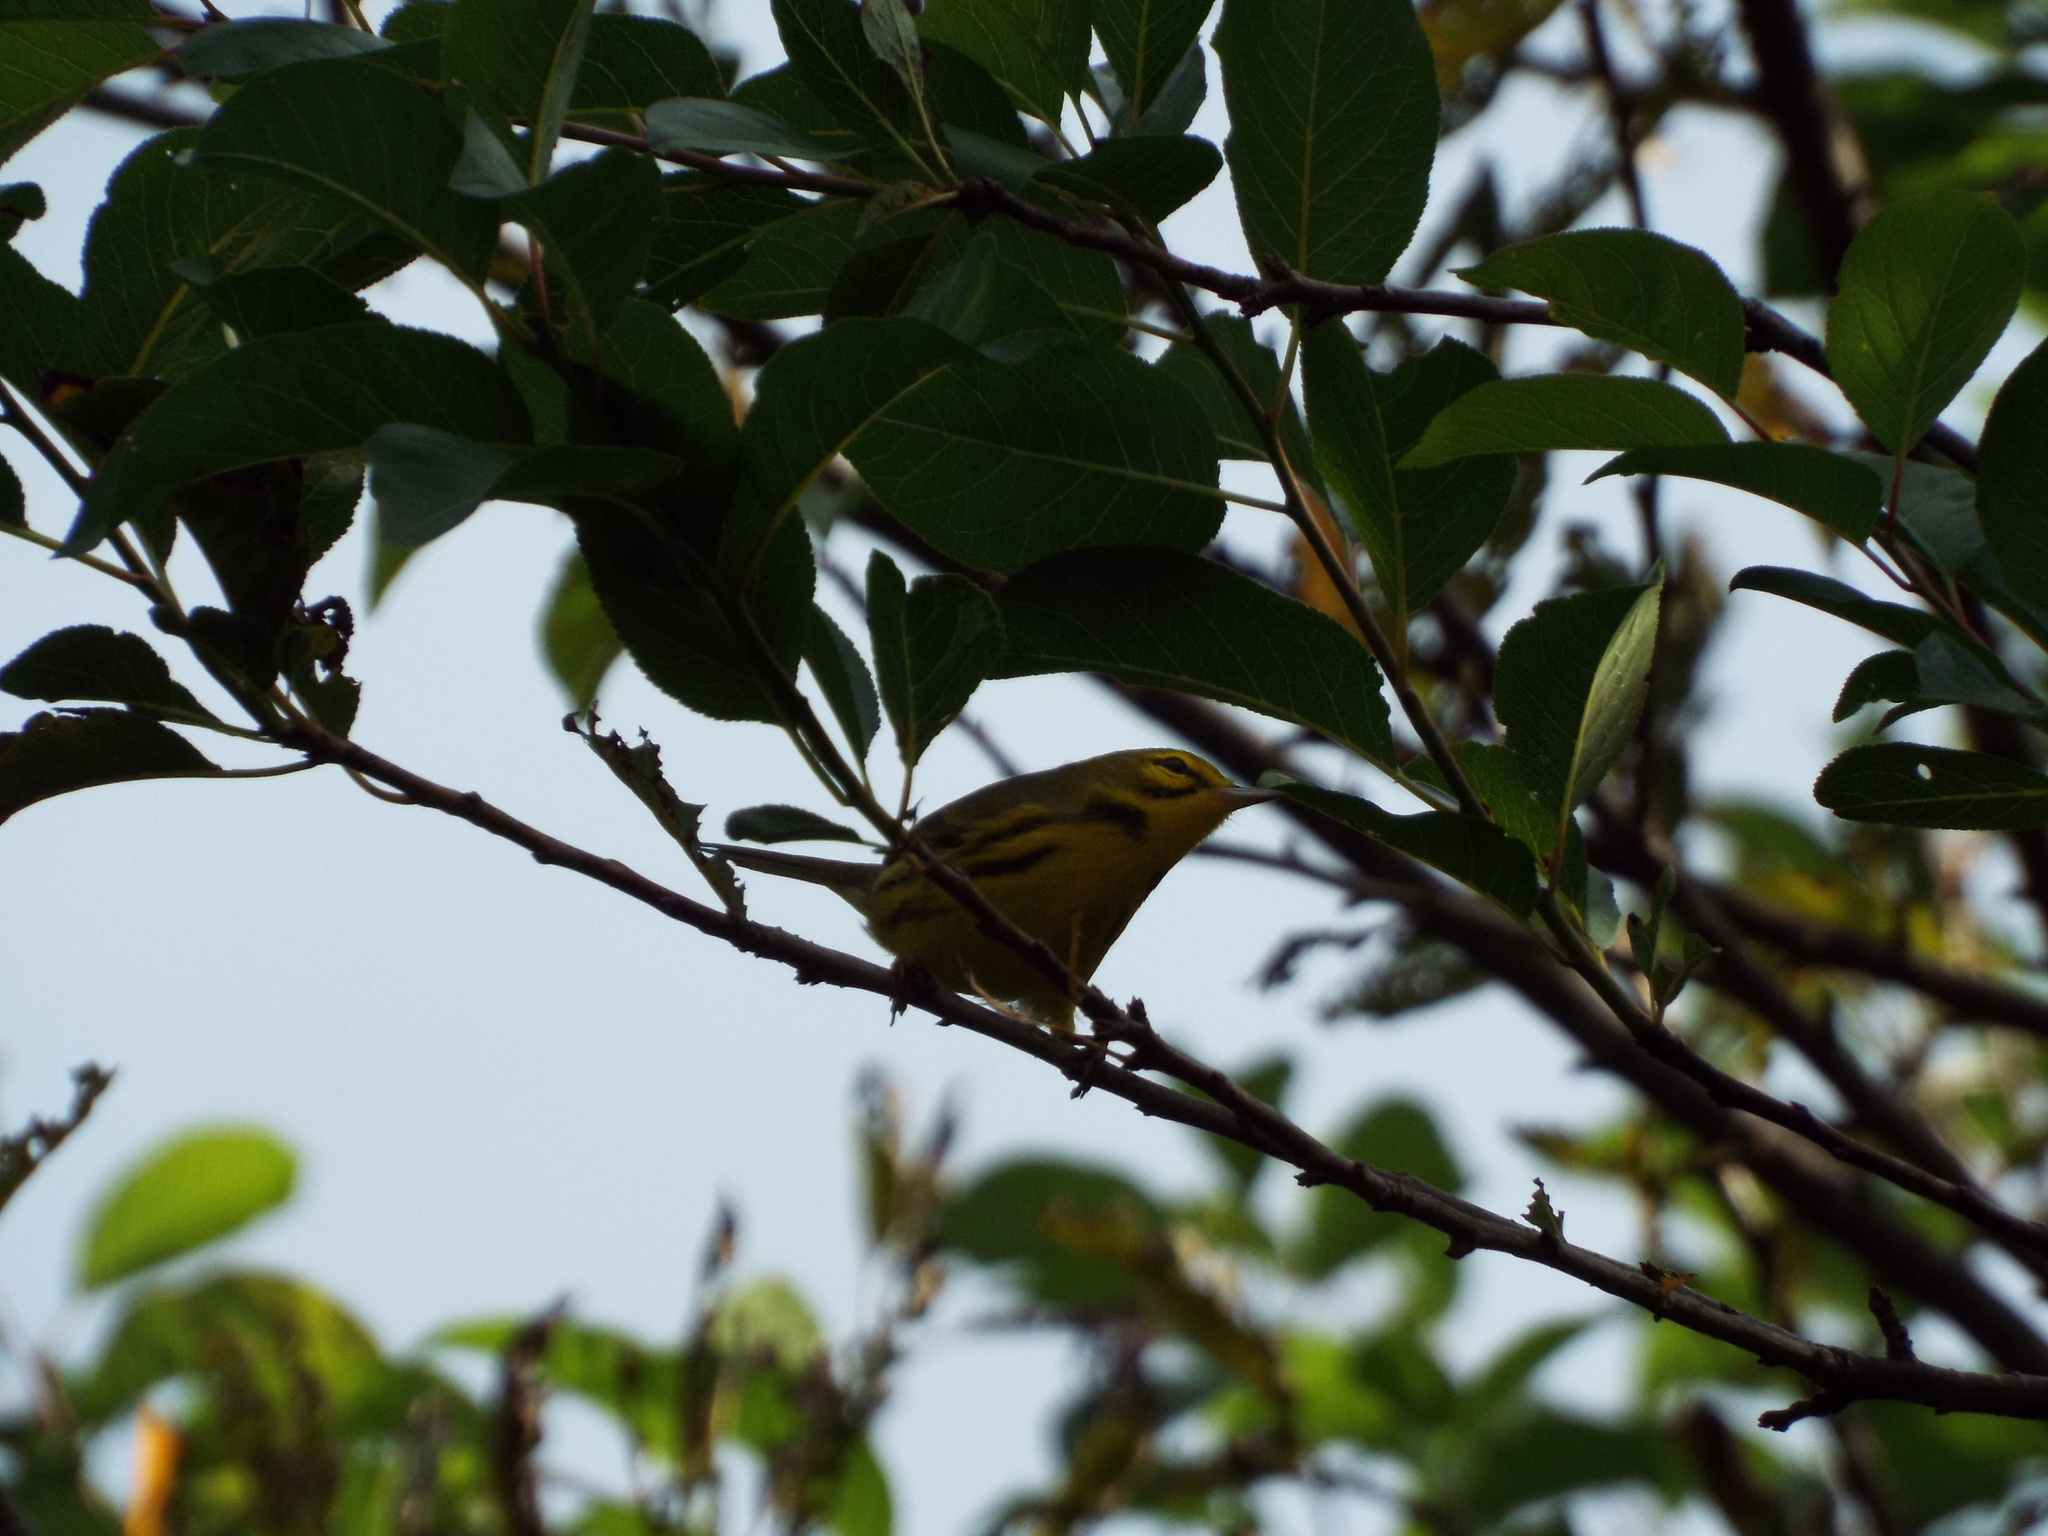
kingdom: Animalia
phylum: Chordata
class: Aves
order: Passeriformes
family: Parulidae
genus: Setophaga
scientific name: Setophaga discolor
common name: Prairie warbler
